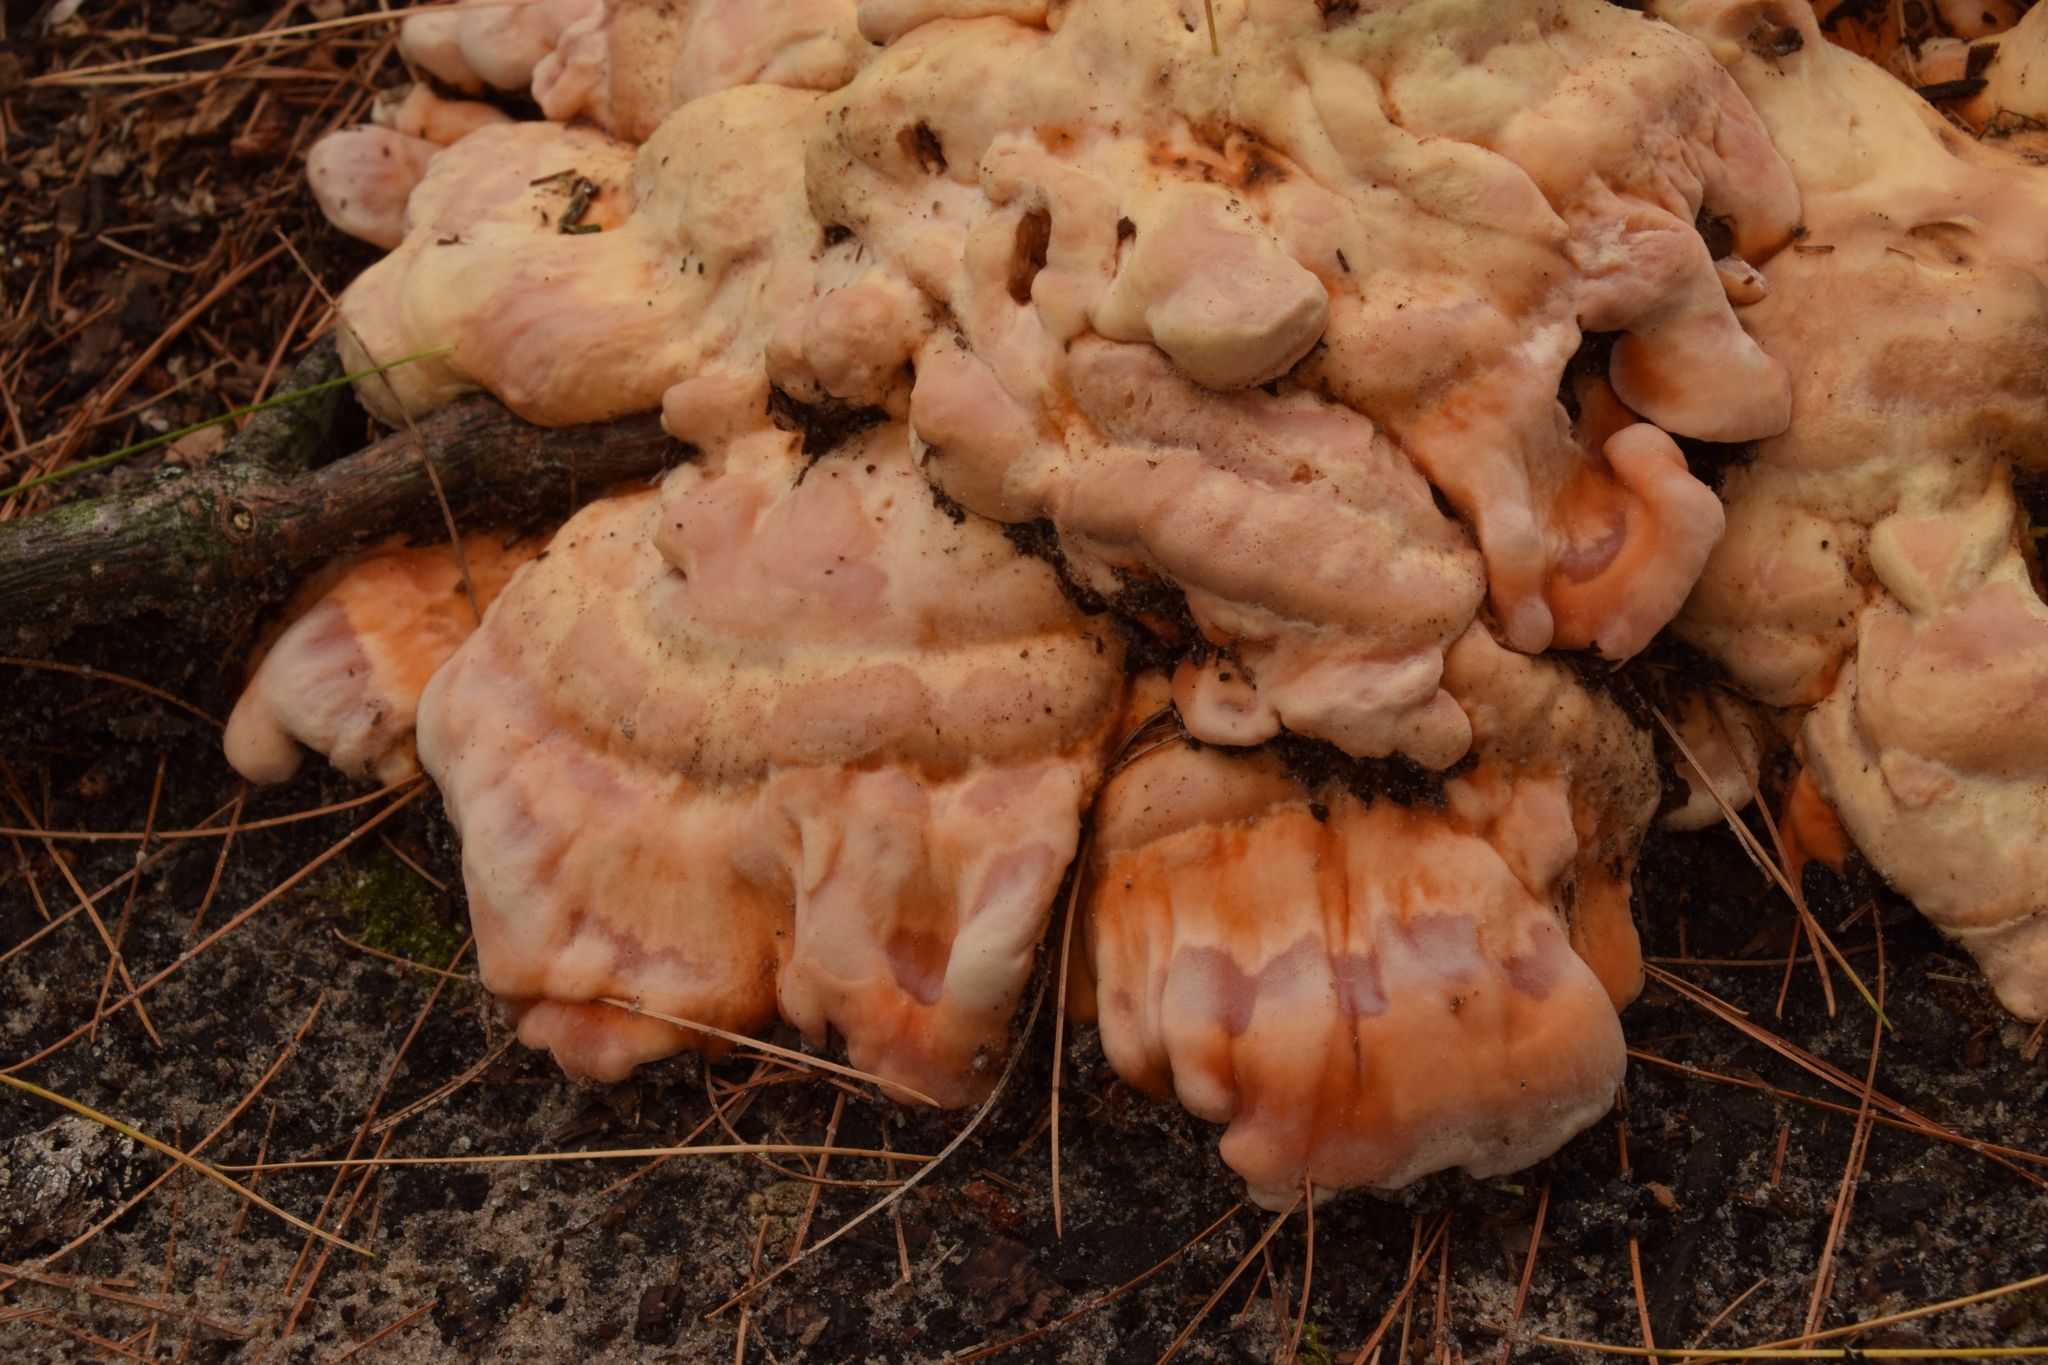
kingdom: Fungi
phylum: Basidiomycota
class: Agaricomycetes
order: Polyporales
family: Laetiporaceae
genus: Laetiporus
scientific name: Laetiporus sulphureus
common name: Chicken of the woods
